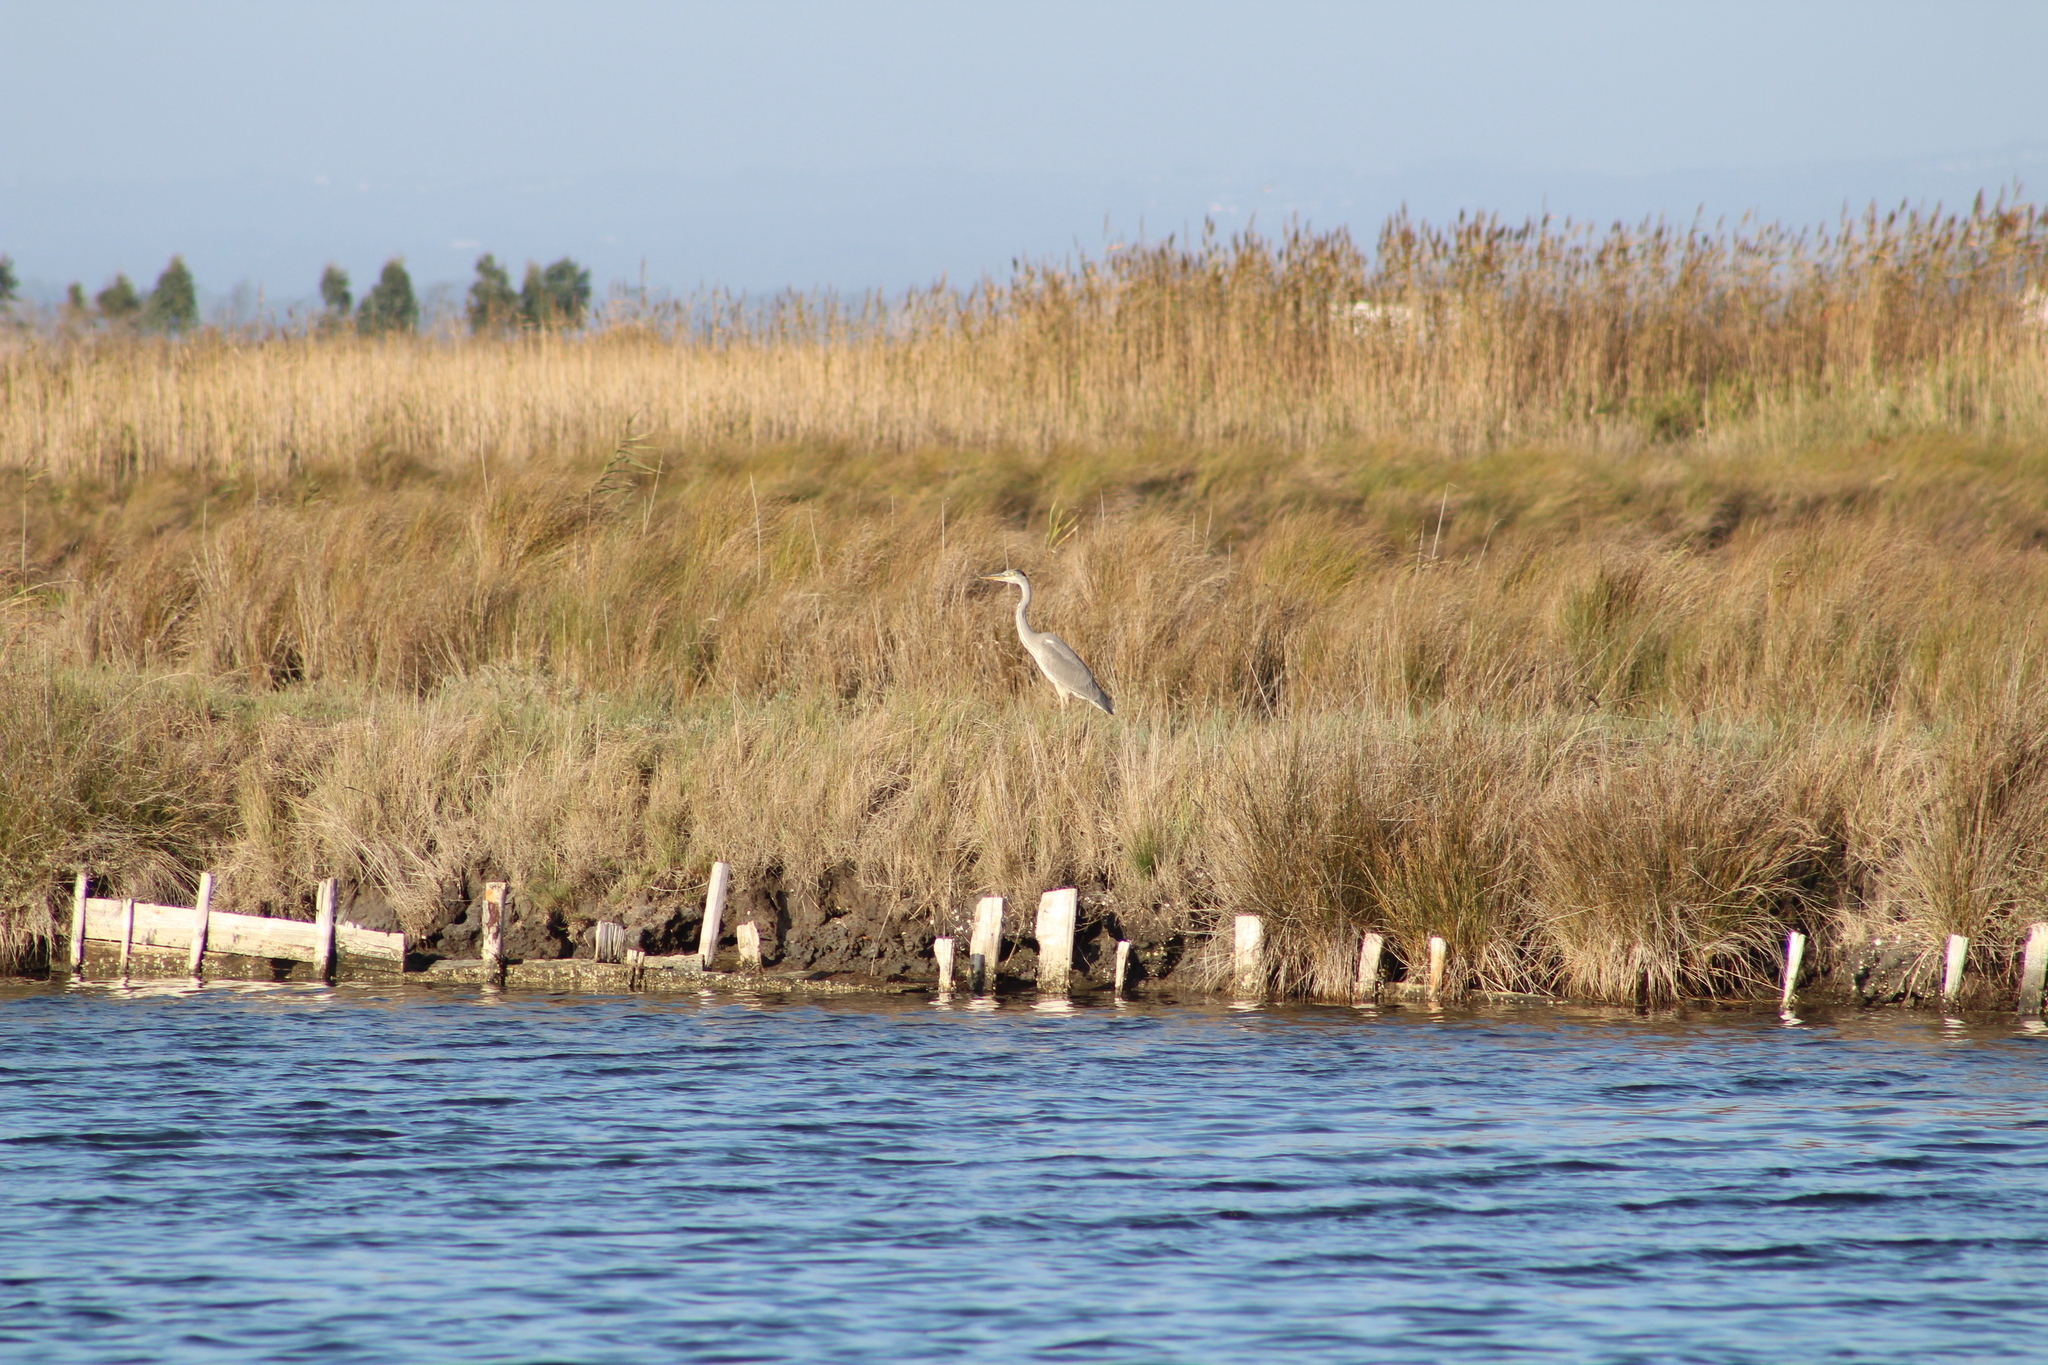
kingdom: Animalia
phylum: Chordata
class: Aves
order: Pelecaniformes
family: Ardeidae
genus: Ardea
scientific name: Ardea cinerea
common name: Grey heron
